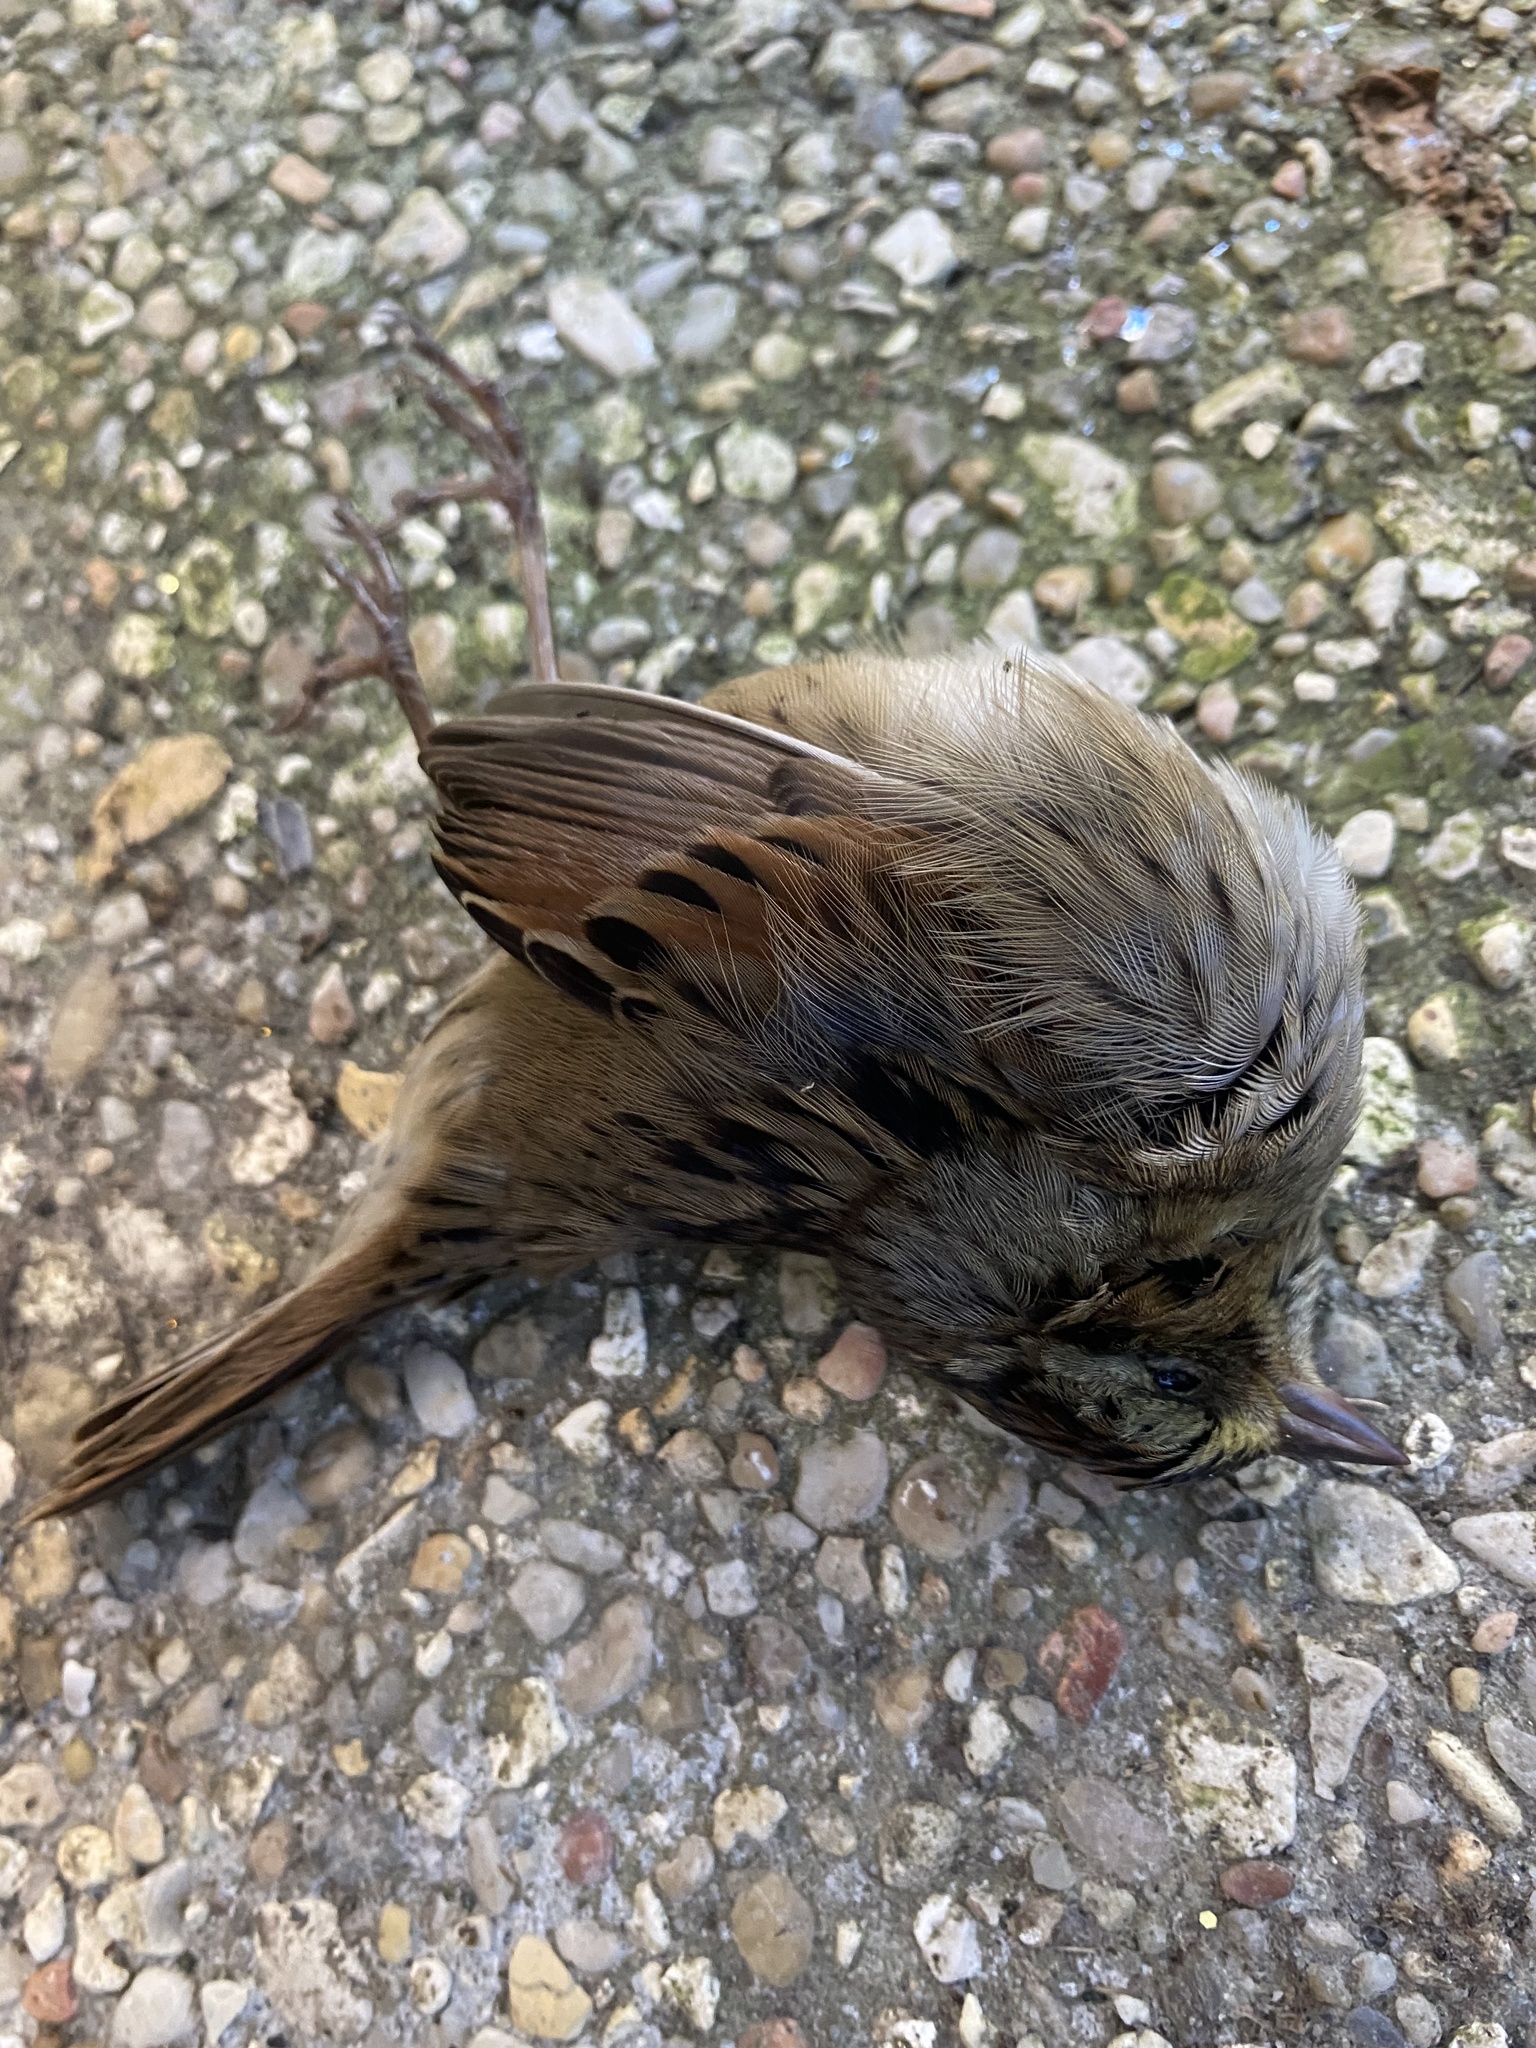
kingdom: Animalia
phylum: Chordata
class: Aves
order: Passeriformes
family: Passerellidae
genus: Melospiza
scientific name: Melospiza georgiana
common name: Swamp sparrow
